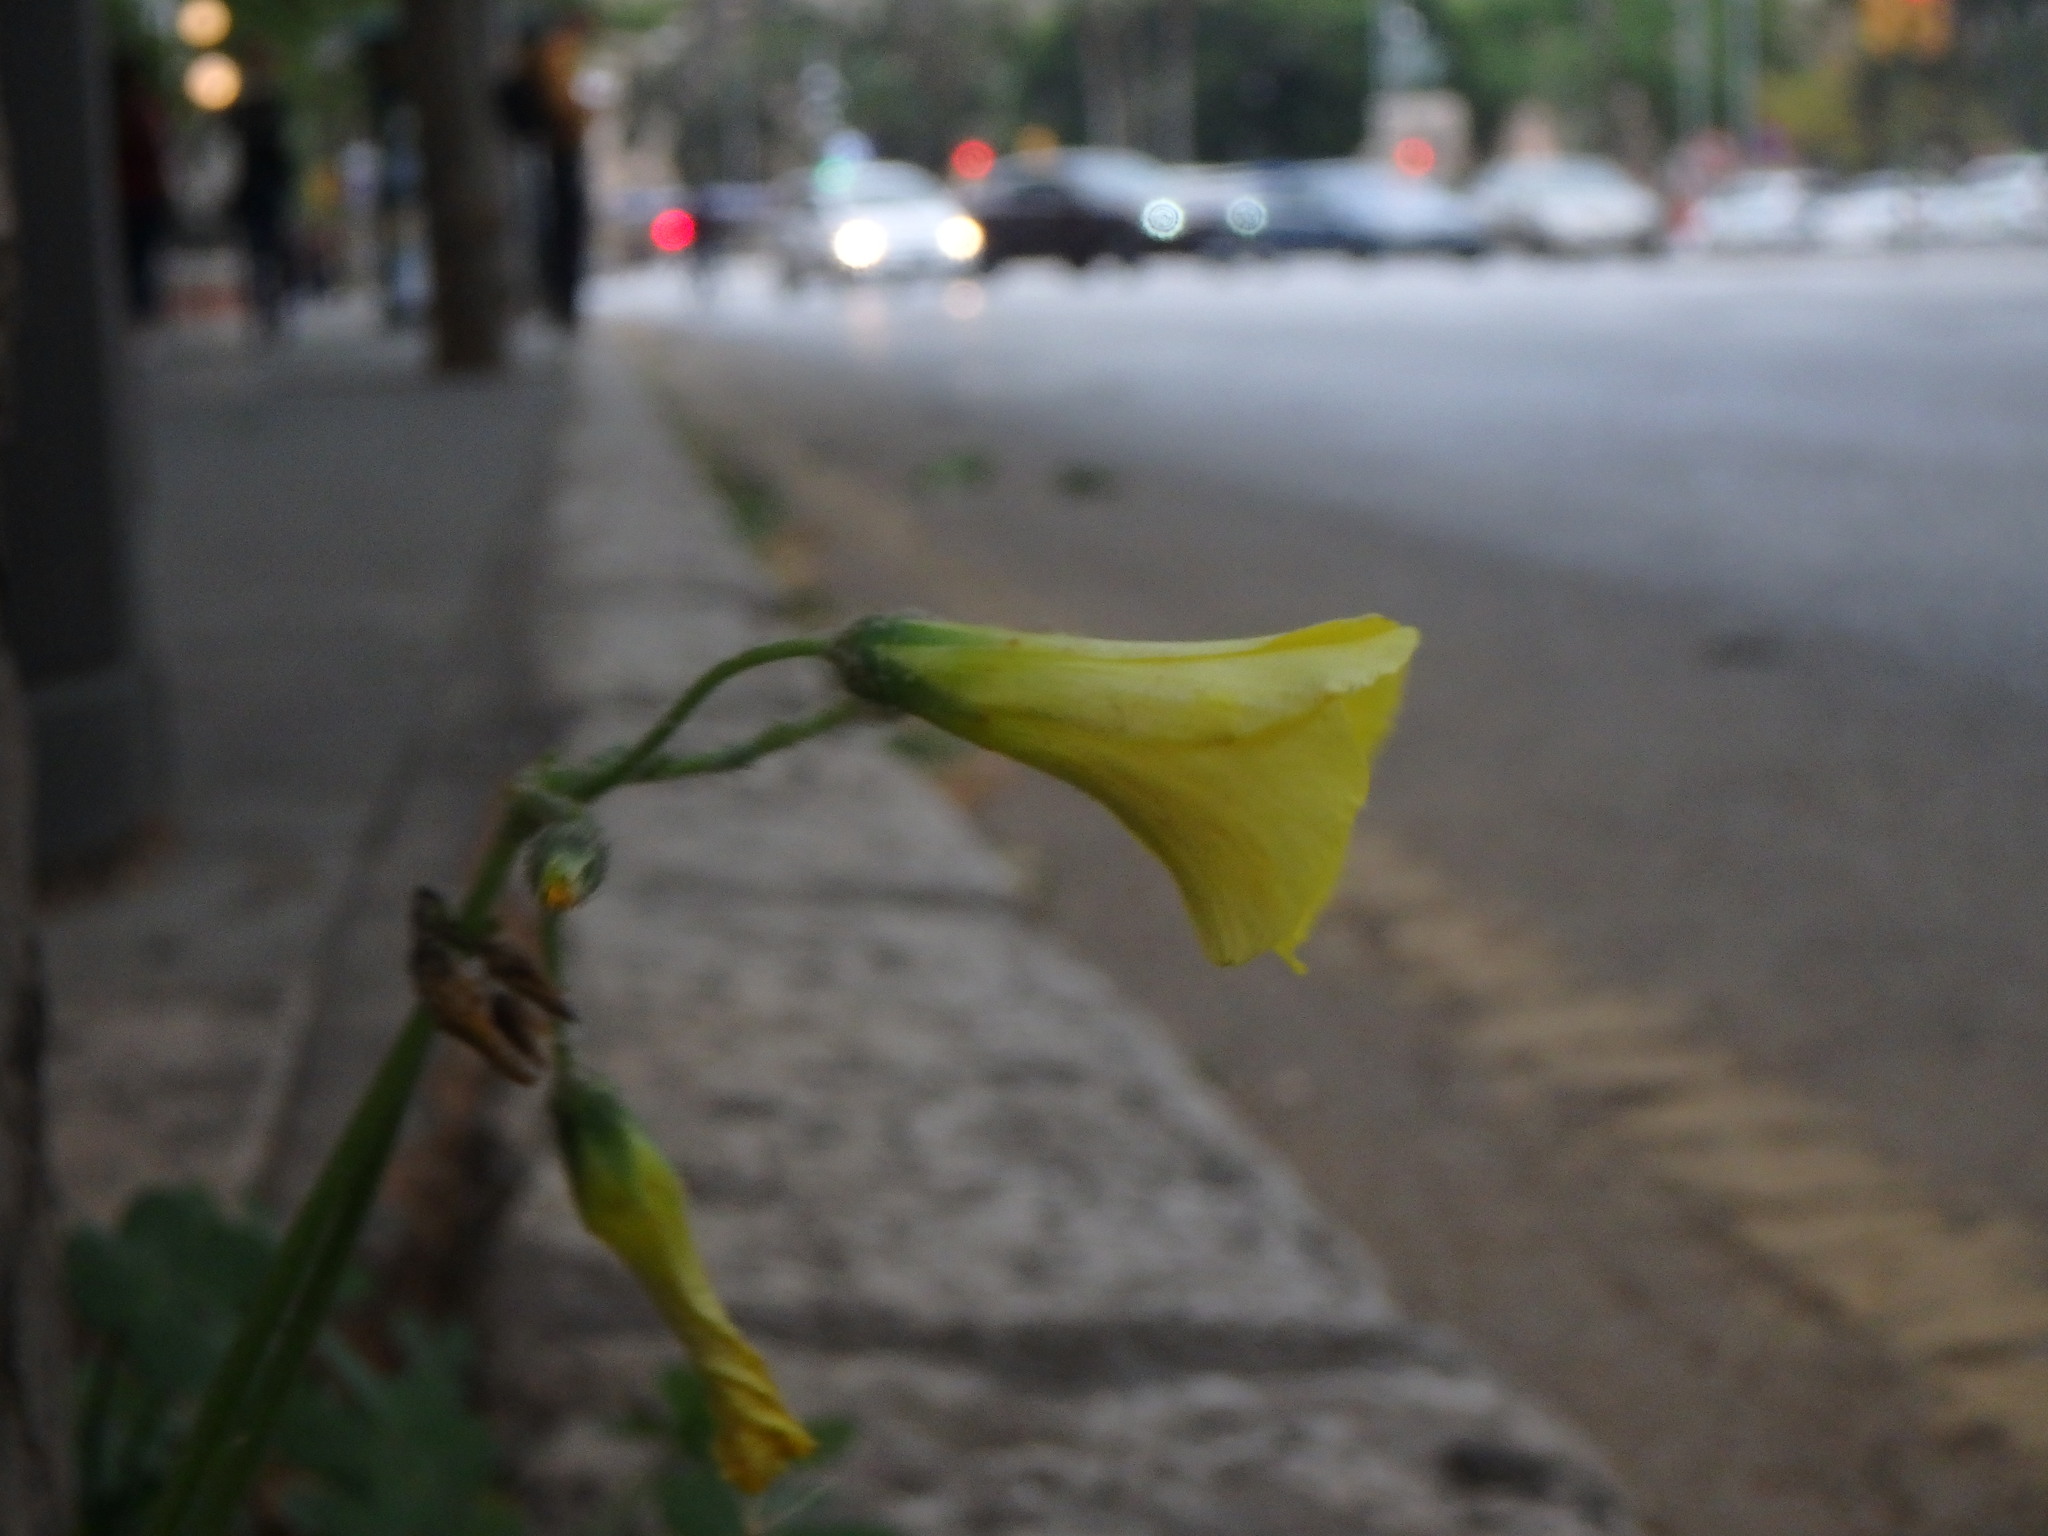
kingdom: Plantae
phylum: Tracheophyta
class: Magnoliopsida
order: Oxalidales
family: Oxalidaceae
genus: Oxalis
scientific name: Oxalis pes-caprae
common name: Bermuda-buttercup
